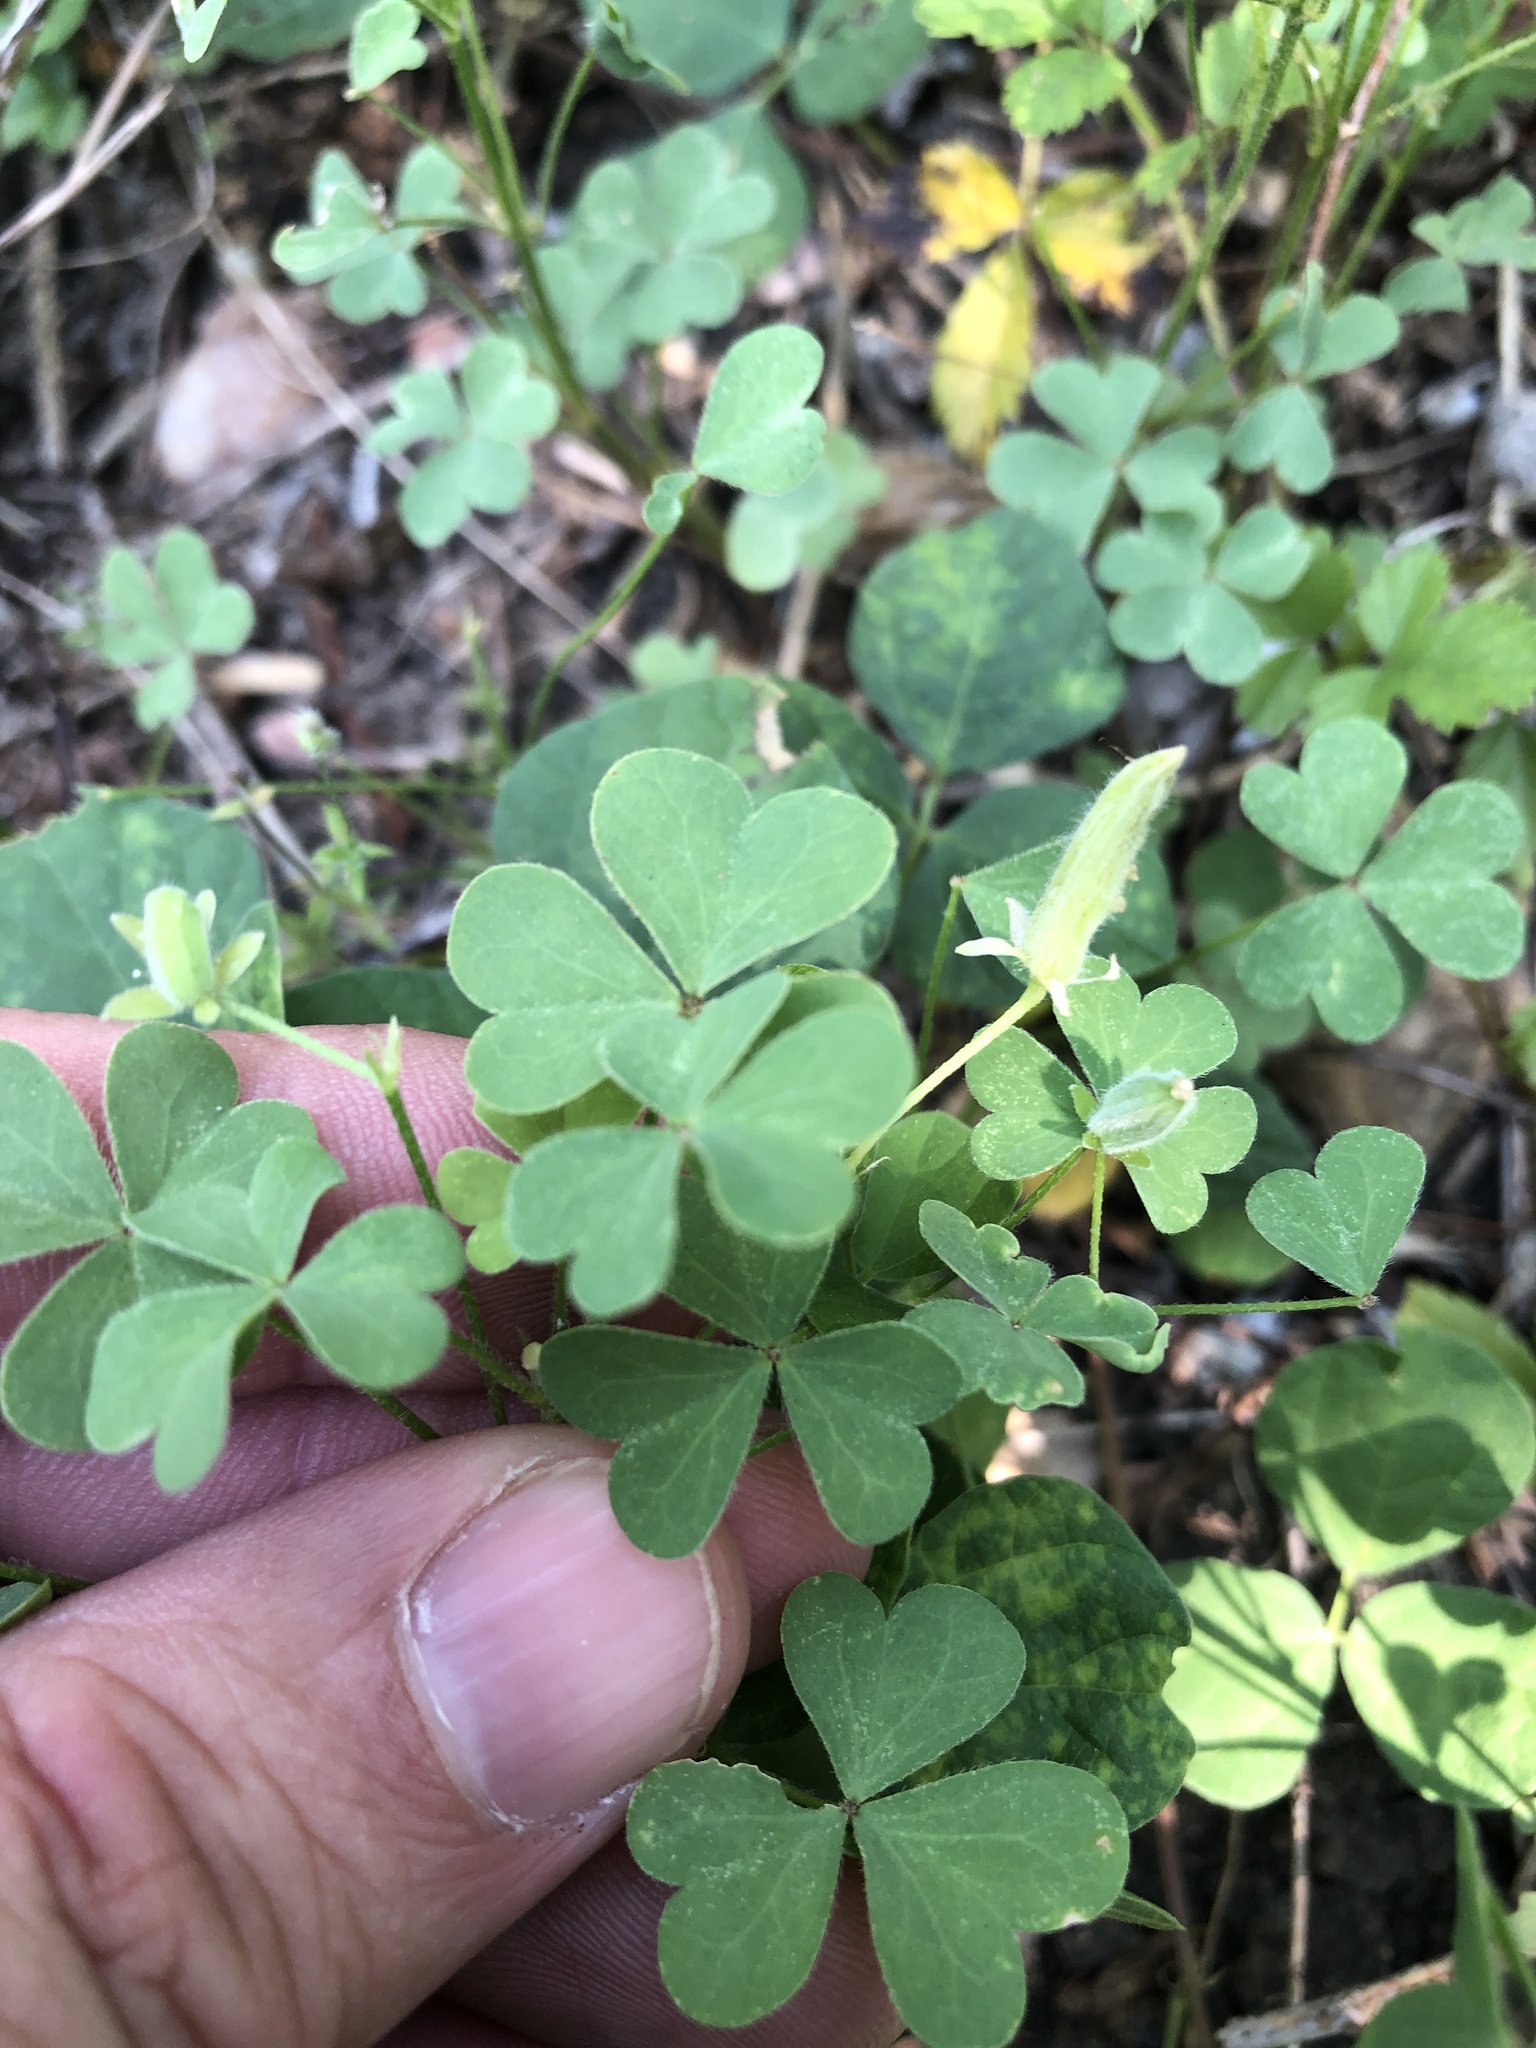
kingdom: Plantae
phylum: Tracheophyta
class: Magnoliopsida
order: Oxalidales
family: Oxalidaceae
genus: Oxalis
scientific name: Oxalis dillenii
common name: Sussex yellow-sorrel
